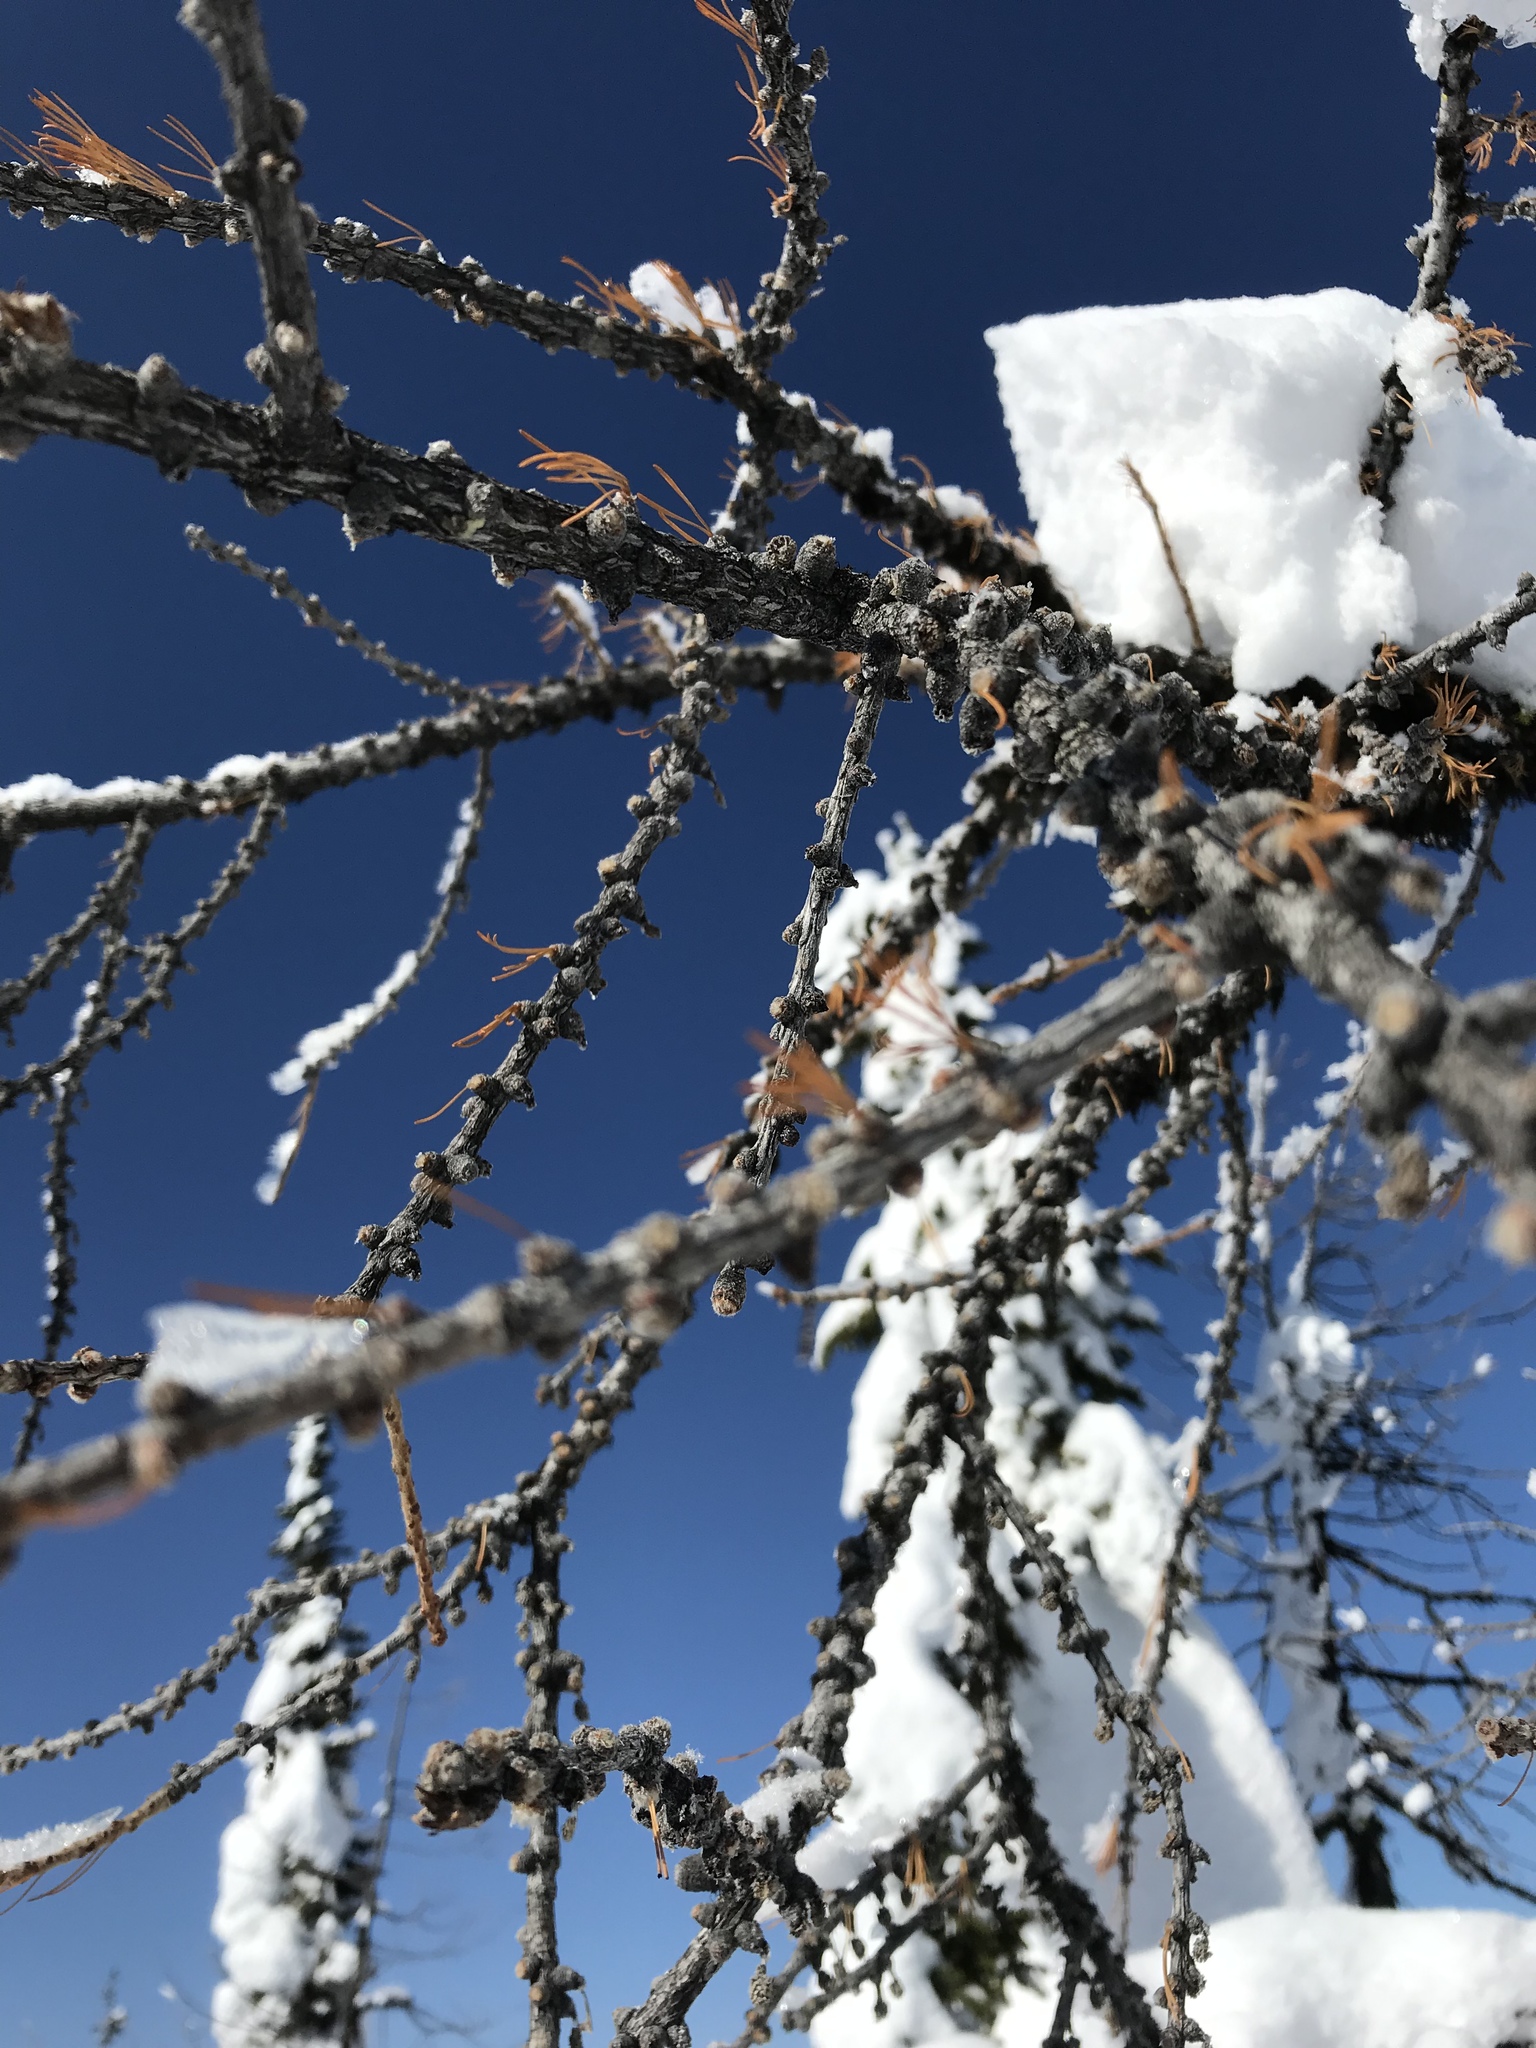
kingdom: Plantae
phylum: Tracheophyta
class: Pinopsida
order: Pinales
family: Pinaceae
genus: Larix
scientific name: Larix occidentalis
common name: Western larch
